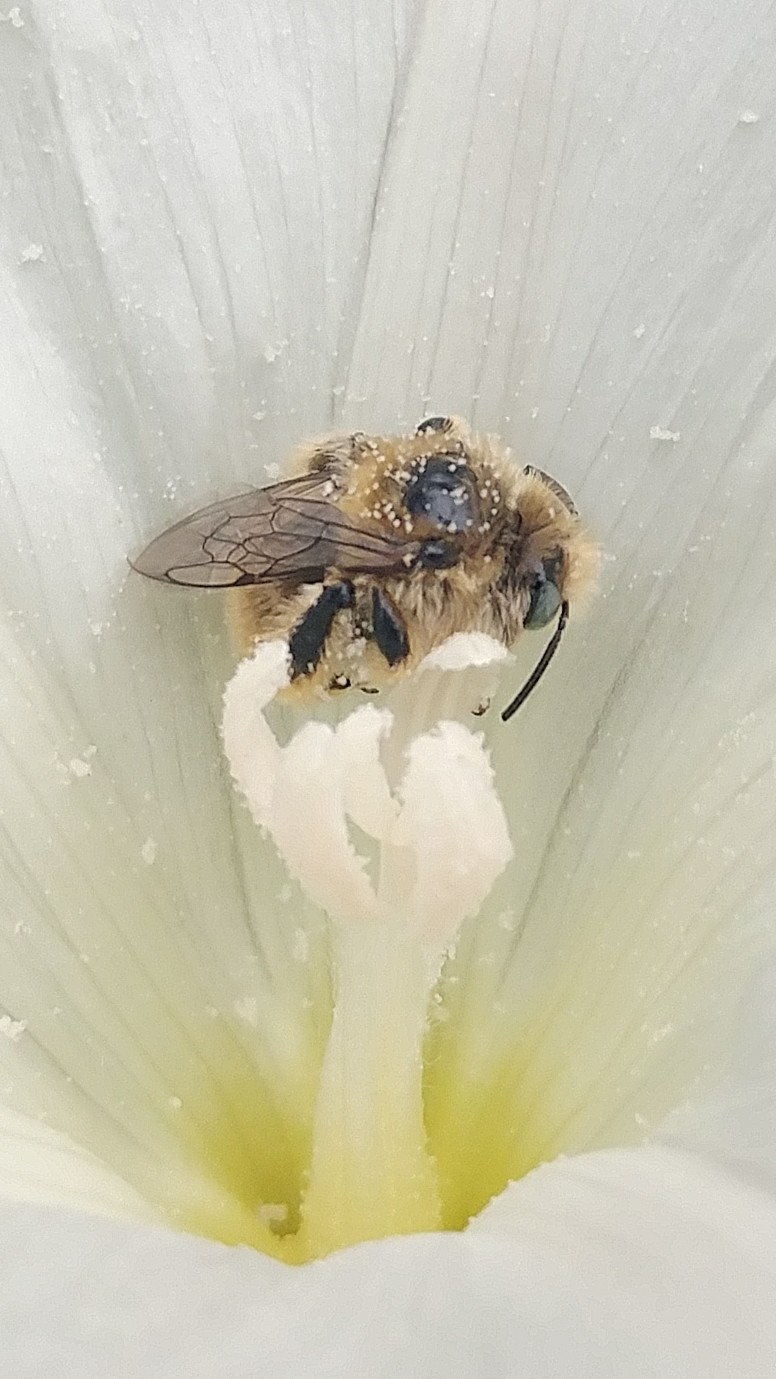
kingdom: Animalia
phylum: Arthropoda
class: Insecta
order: Hymenoptera
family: Apidae
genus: Diadasia
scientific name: Diadasia ochracea
